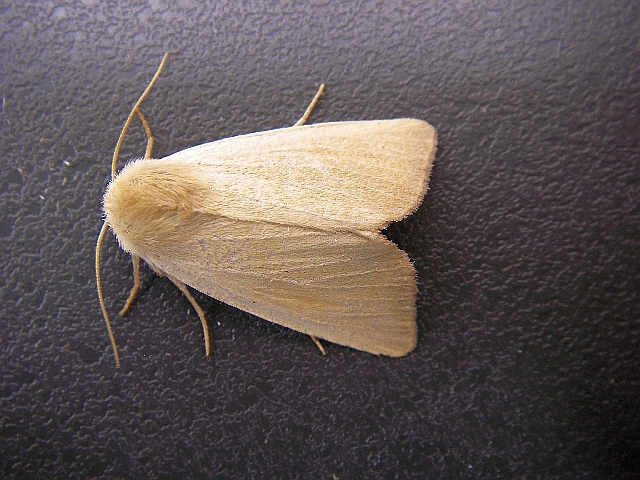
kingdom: Animalia
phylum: Arthropoda
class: Insecta
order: Lepidoptera
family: Noctuidae
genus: Arenostola
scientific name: Arenostola phragmitidis
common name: Fen wainscot
